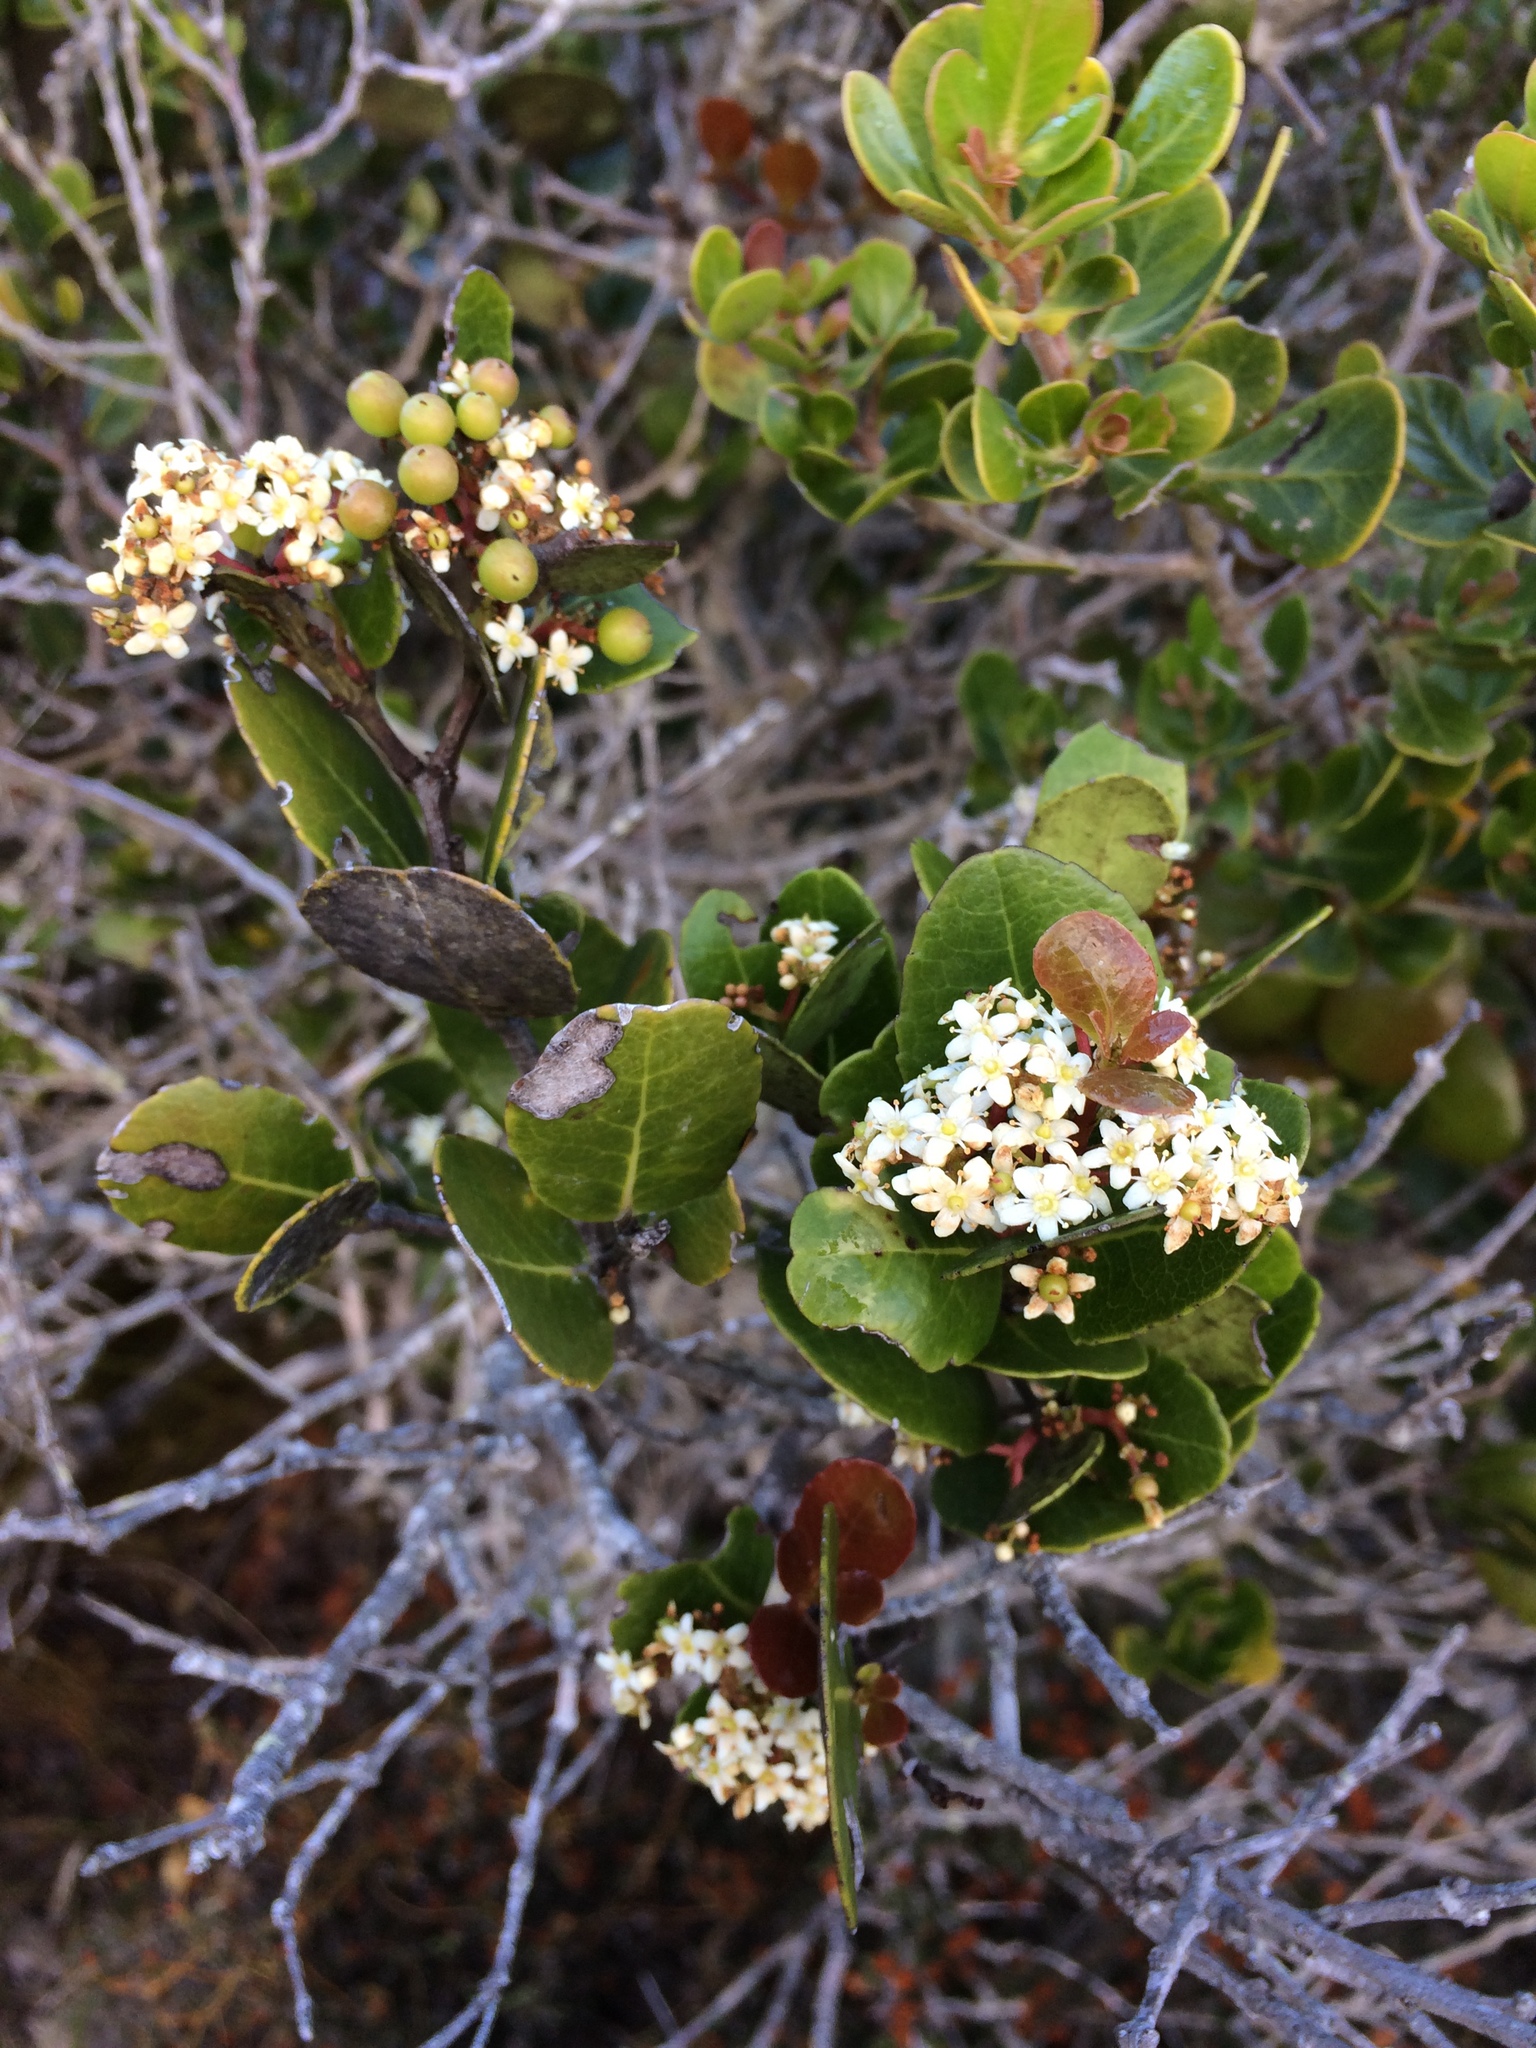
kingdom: Plantae
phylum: Tracheophyta
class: Magnoliopsida
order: Celastrales
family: Celastraceae
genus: Cassine
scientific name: Cassine peragua
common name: Cape saffron
